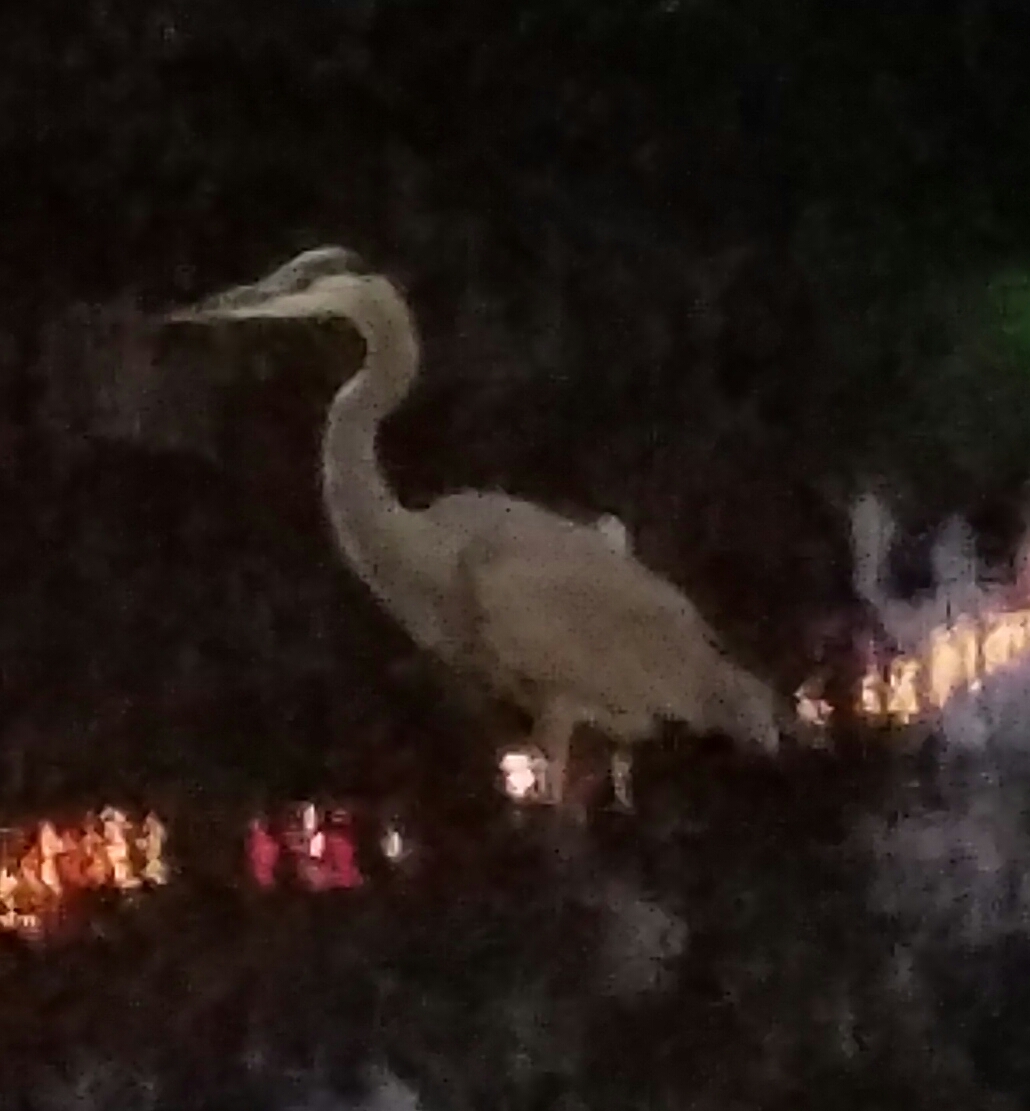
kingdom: Animalia
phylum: Chordata
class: Aves
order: Pelecaniformes
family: Ardeidae
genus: Ardea
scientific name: Ardea herodias
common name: Great blue heron
